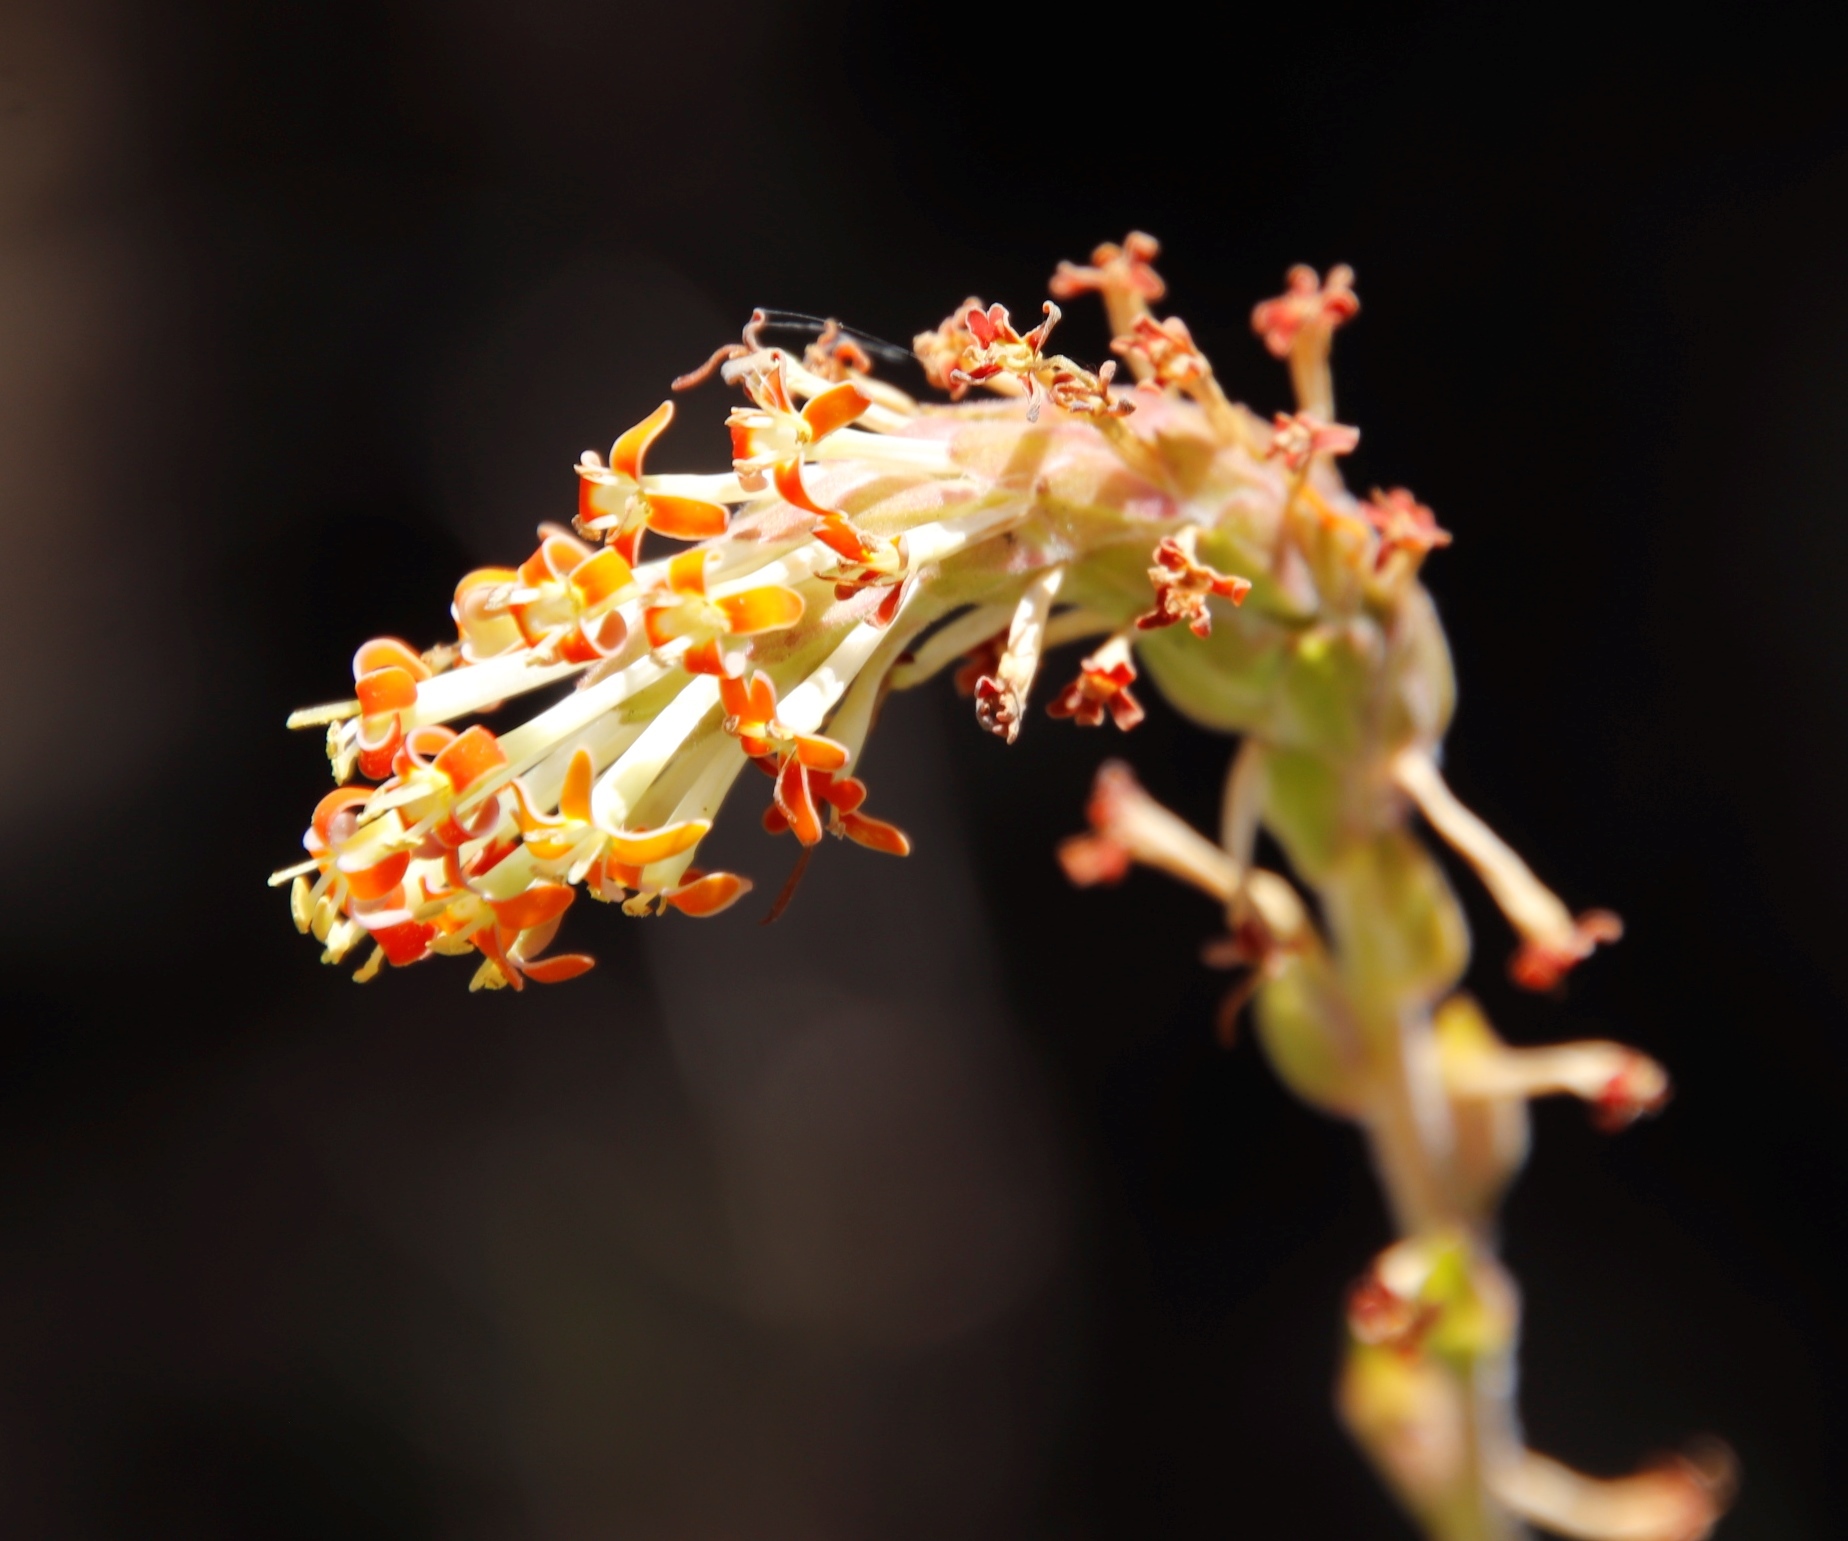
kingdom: Plantae
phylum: Tracheophyta
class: Magnoliopsida
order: Lamiales
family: Scrophulariaceae
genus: Glumicalyx
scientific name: Glumicalyx nutans
